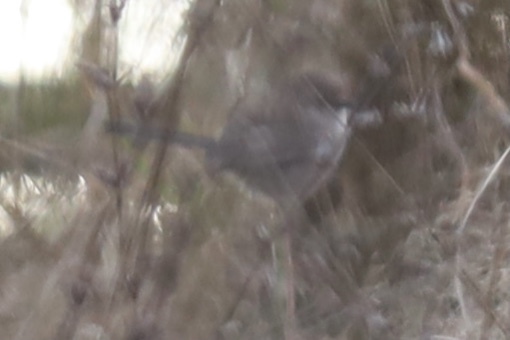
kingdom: Animalia
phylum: Chordata
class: Aves
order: Passeriformes
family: Aegithalidae
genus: Psaltriparus
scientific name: Psaltriparus minimus
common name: American bushtit
